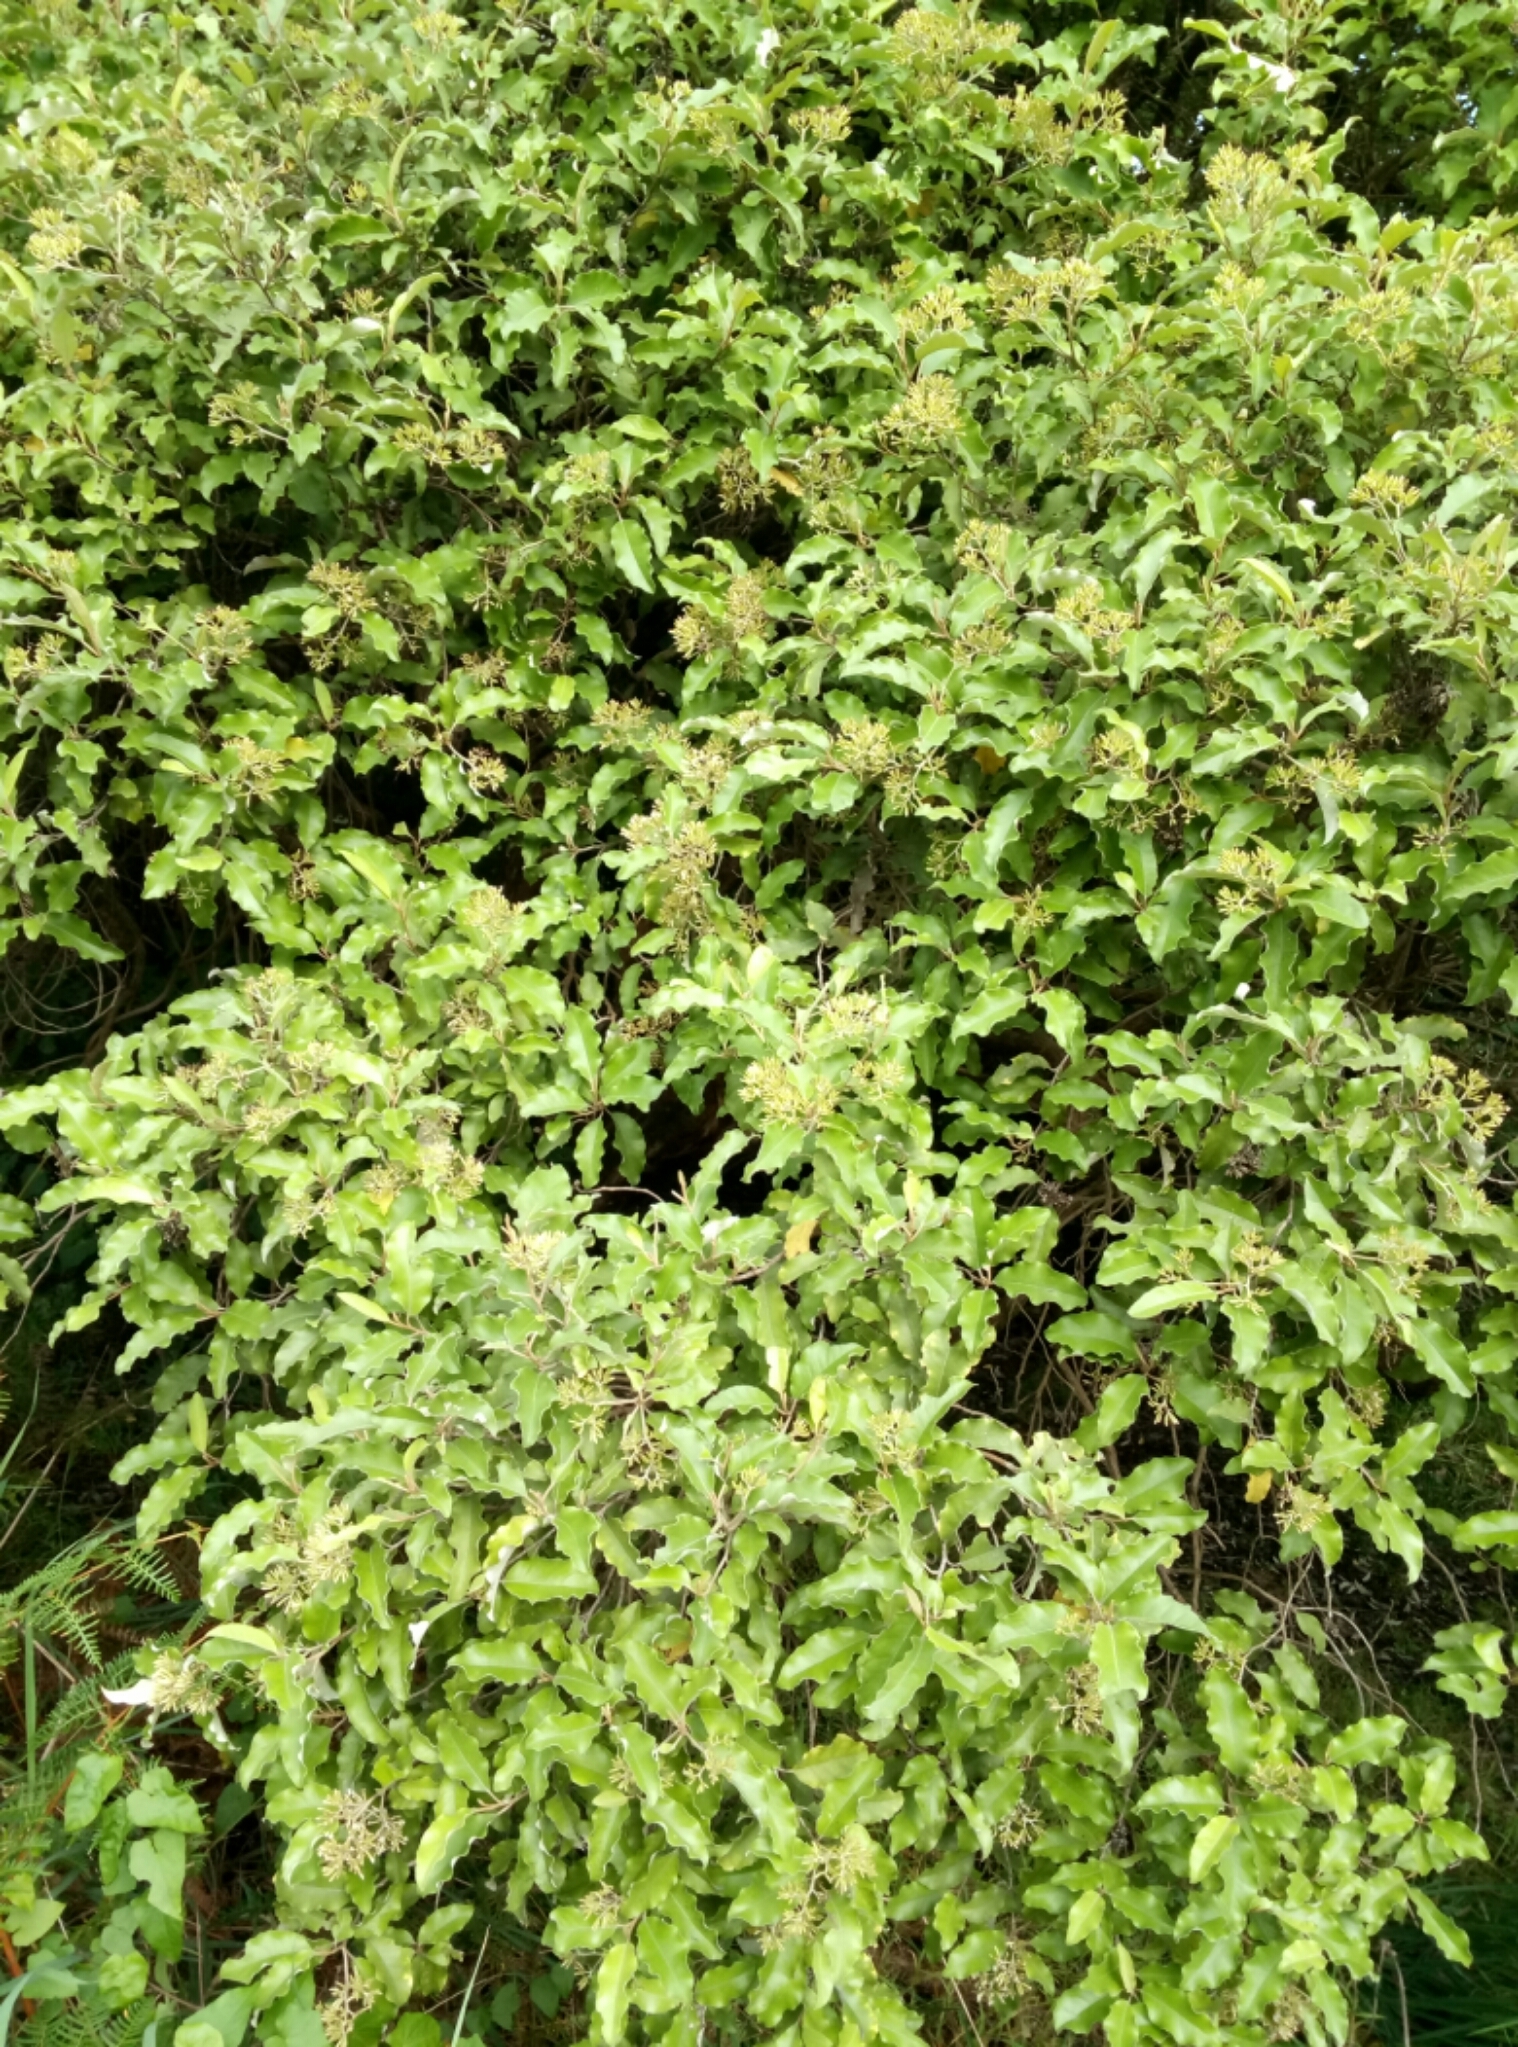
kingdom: Plantae
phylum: Tracheophyta
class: Magnoliopsida
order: Asterales
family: Asteraceae
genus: Olearia
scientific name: Olearia paniculata
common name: Akiraho
